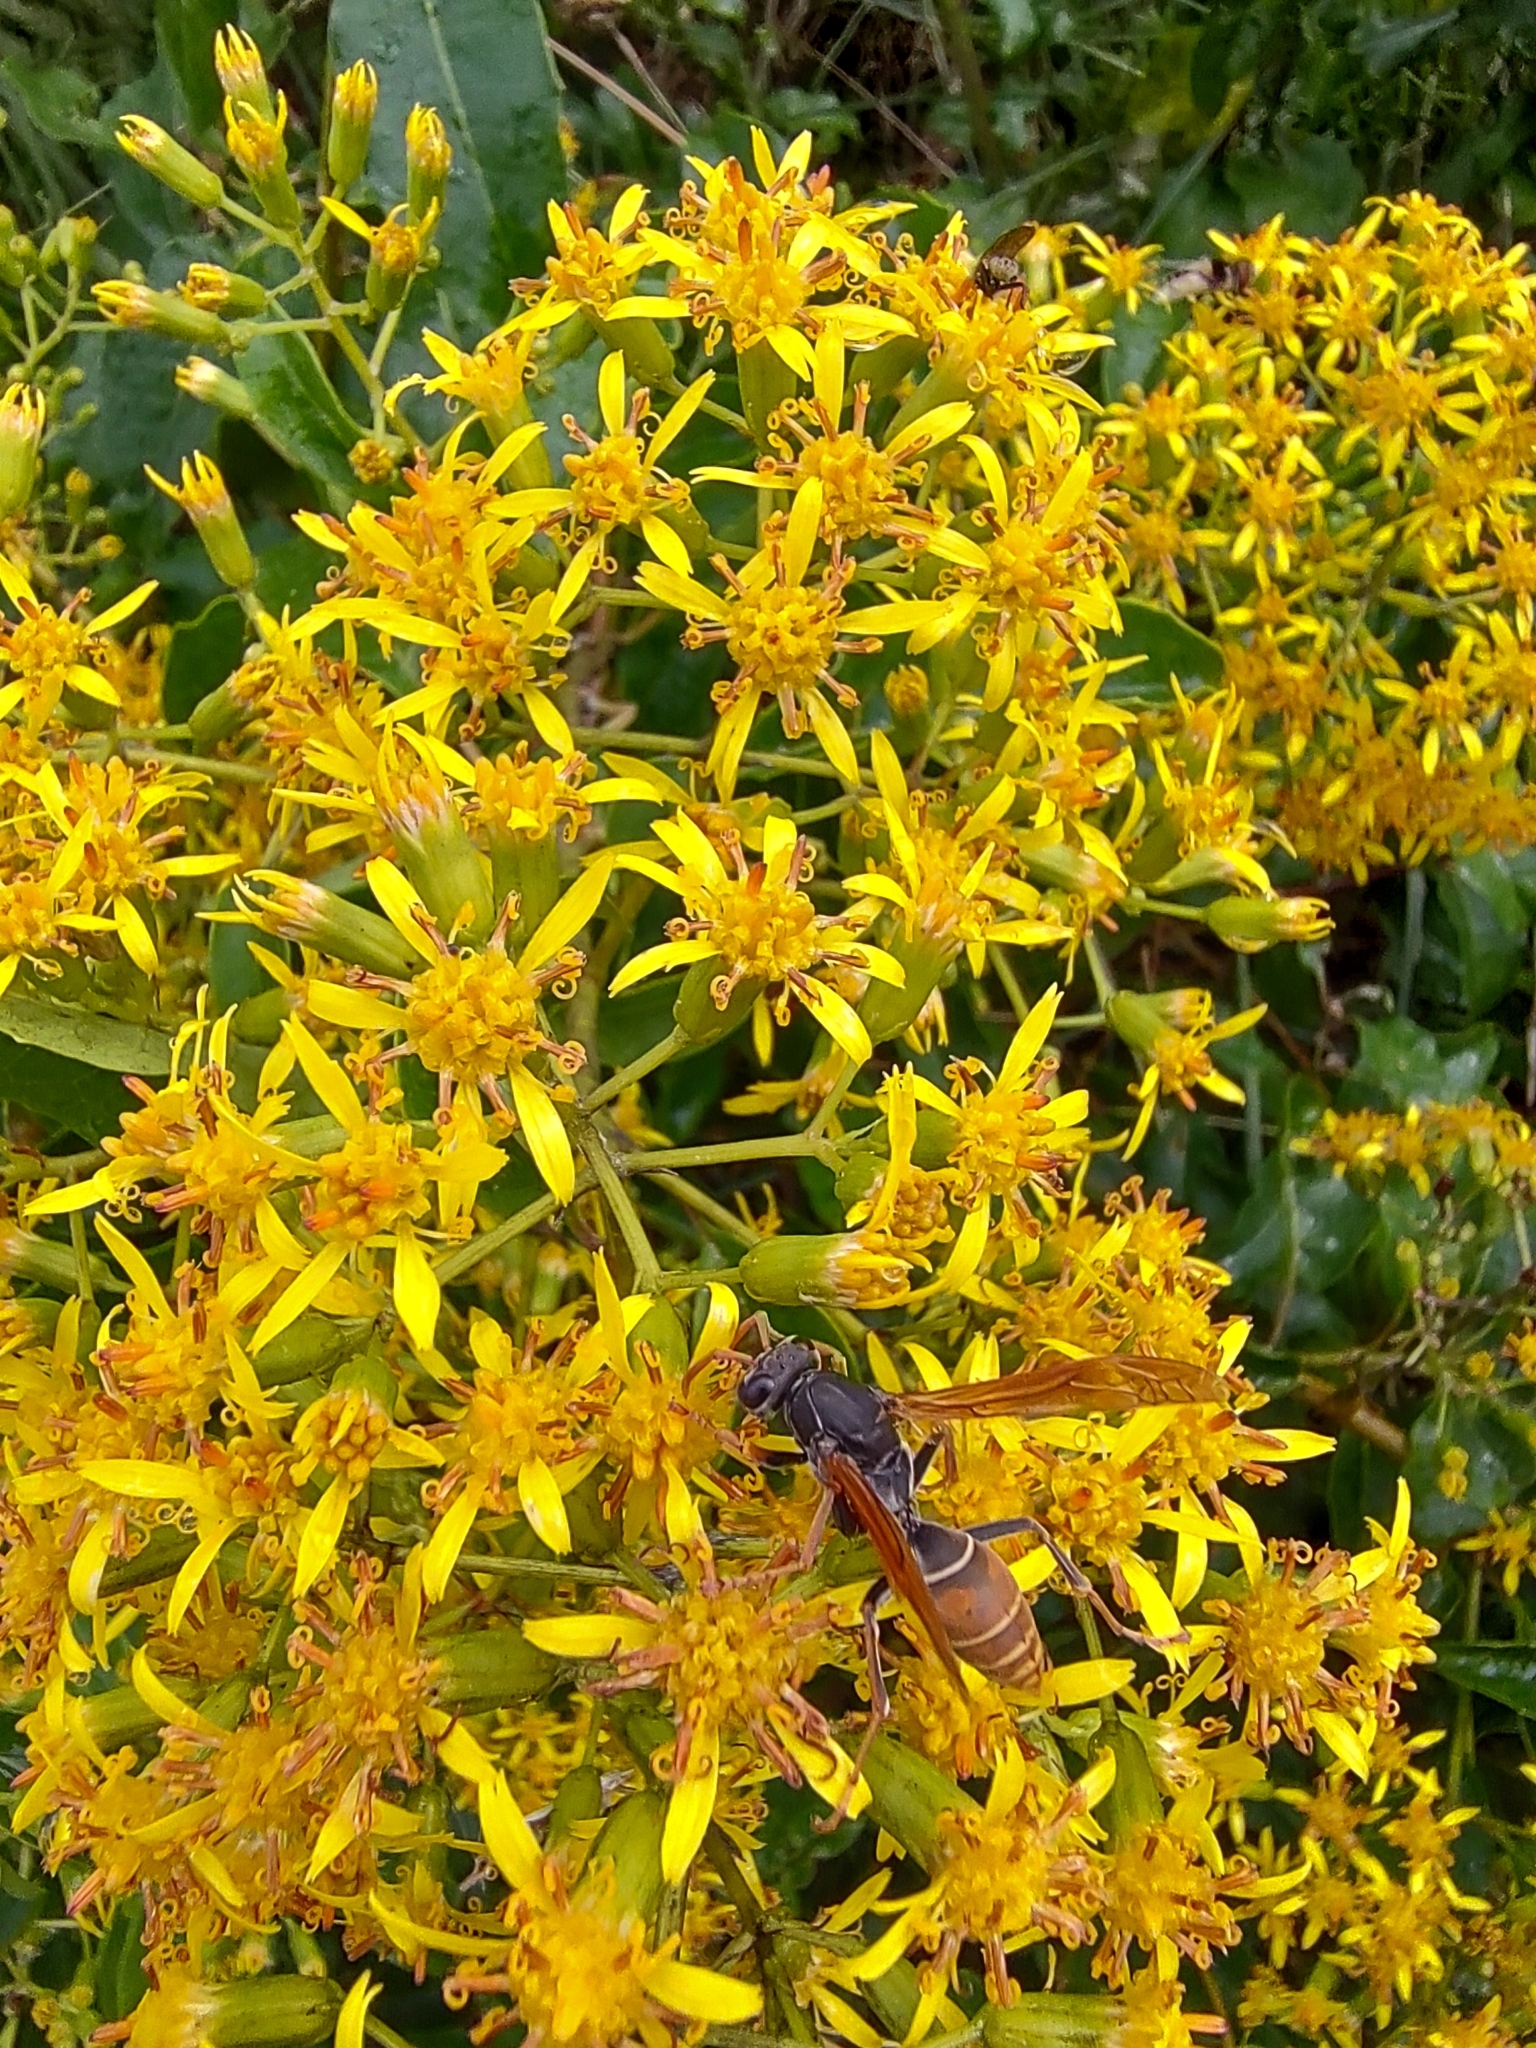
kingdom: Animalia
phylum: Arthropoda
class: Insecta
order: Hymenoptera
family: Eumenidae
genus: Polistes
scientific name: Polistes billardieri
